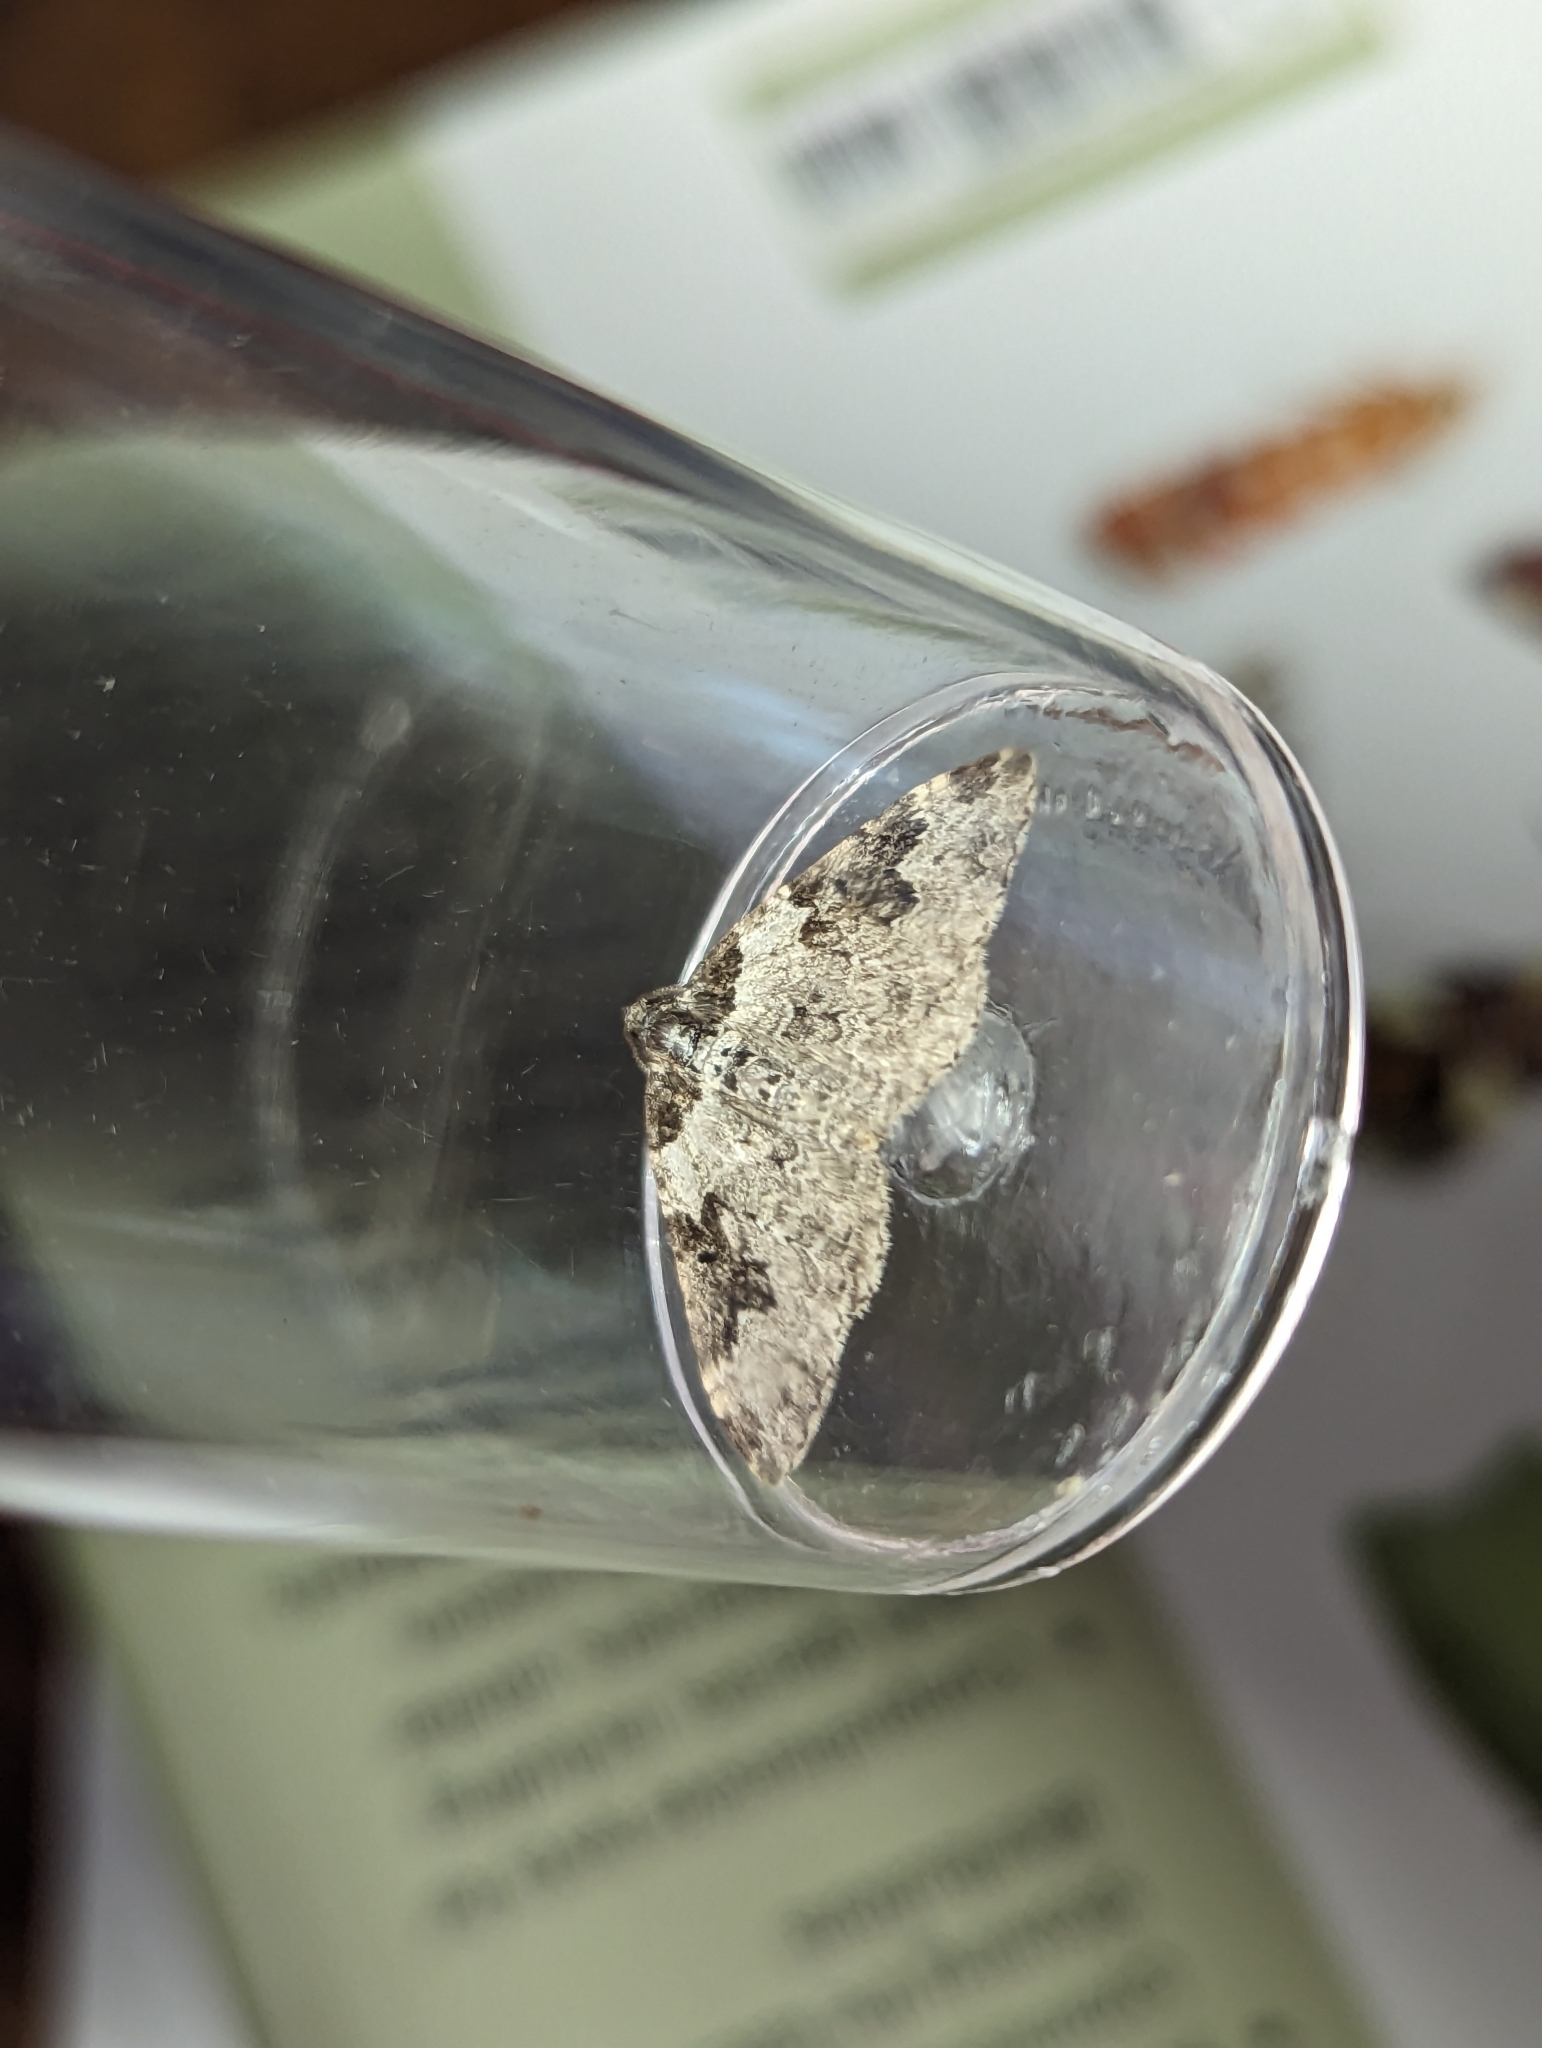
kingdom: Animalia
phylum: Arthropoda
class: Insecta
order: Lepidoptera
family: Geometridae
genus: Xanthorhoe
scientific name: Xanthorhoe fluctuata
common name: Garden carpet
